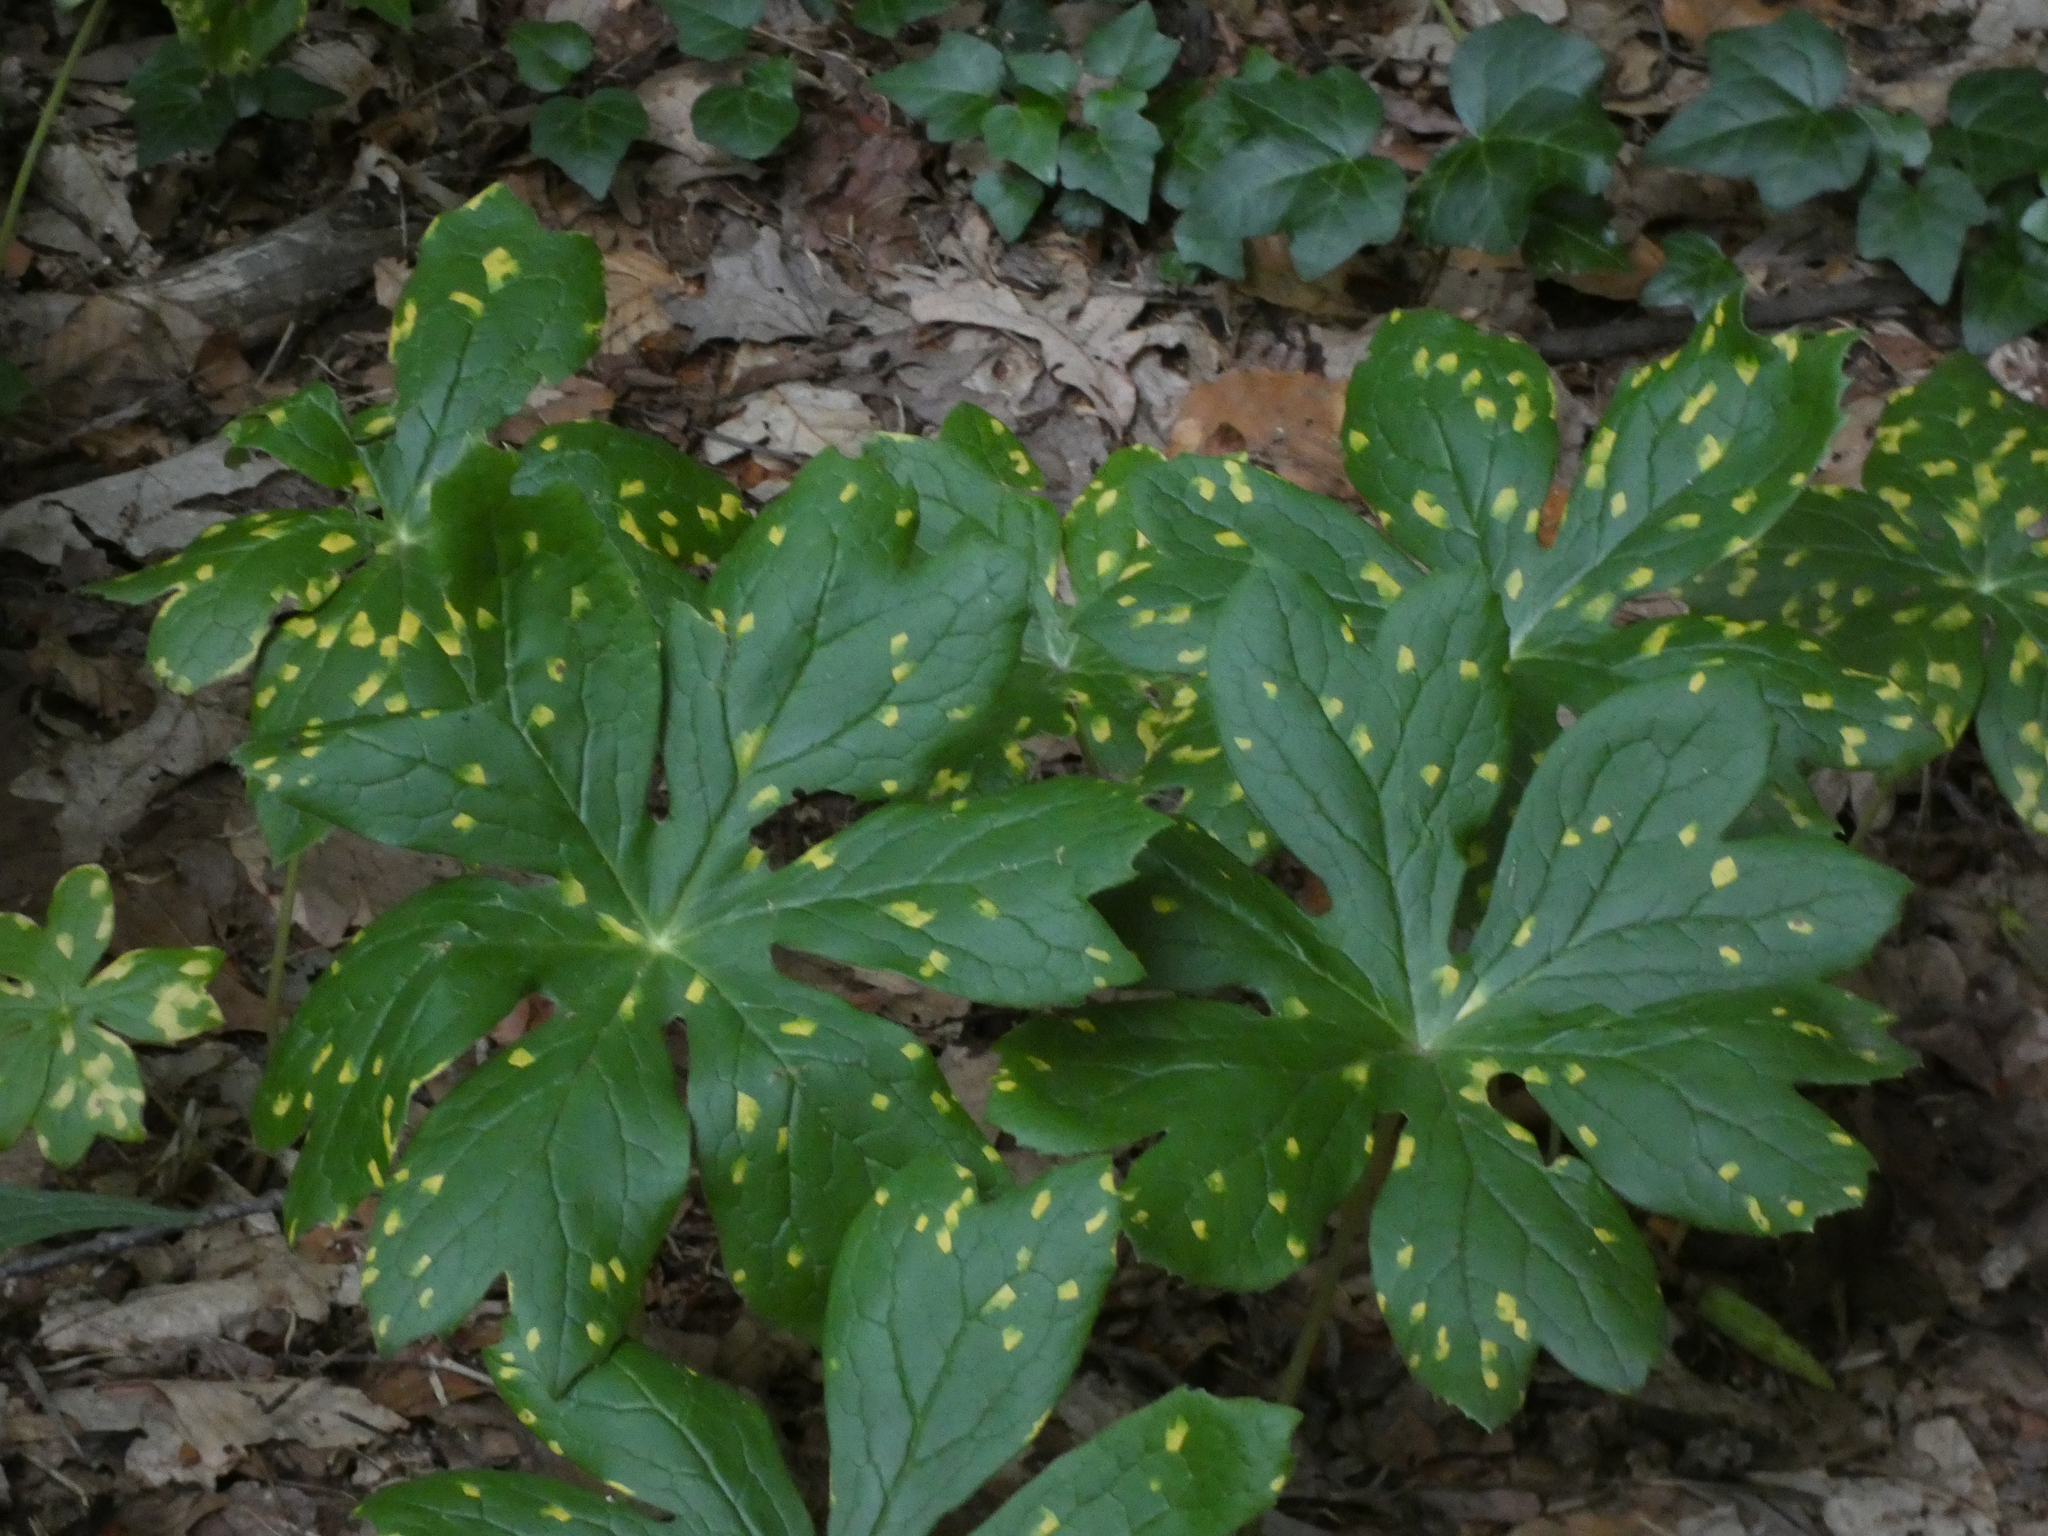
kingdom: Plantae
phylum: Tracheophyta
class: Magnoliopsida
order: Ranunculales
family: Berberidaceae
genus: Podophyllum
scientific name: Podophyllum peltatum
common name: Wild mandrake
